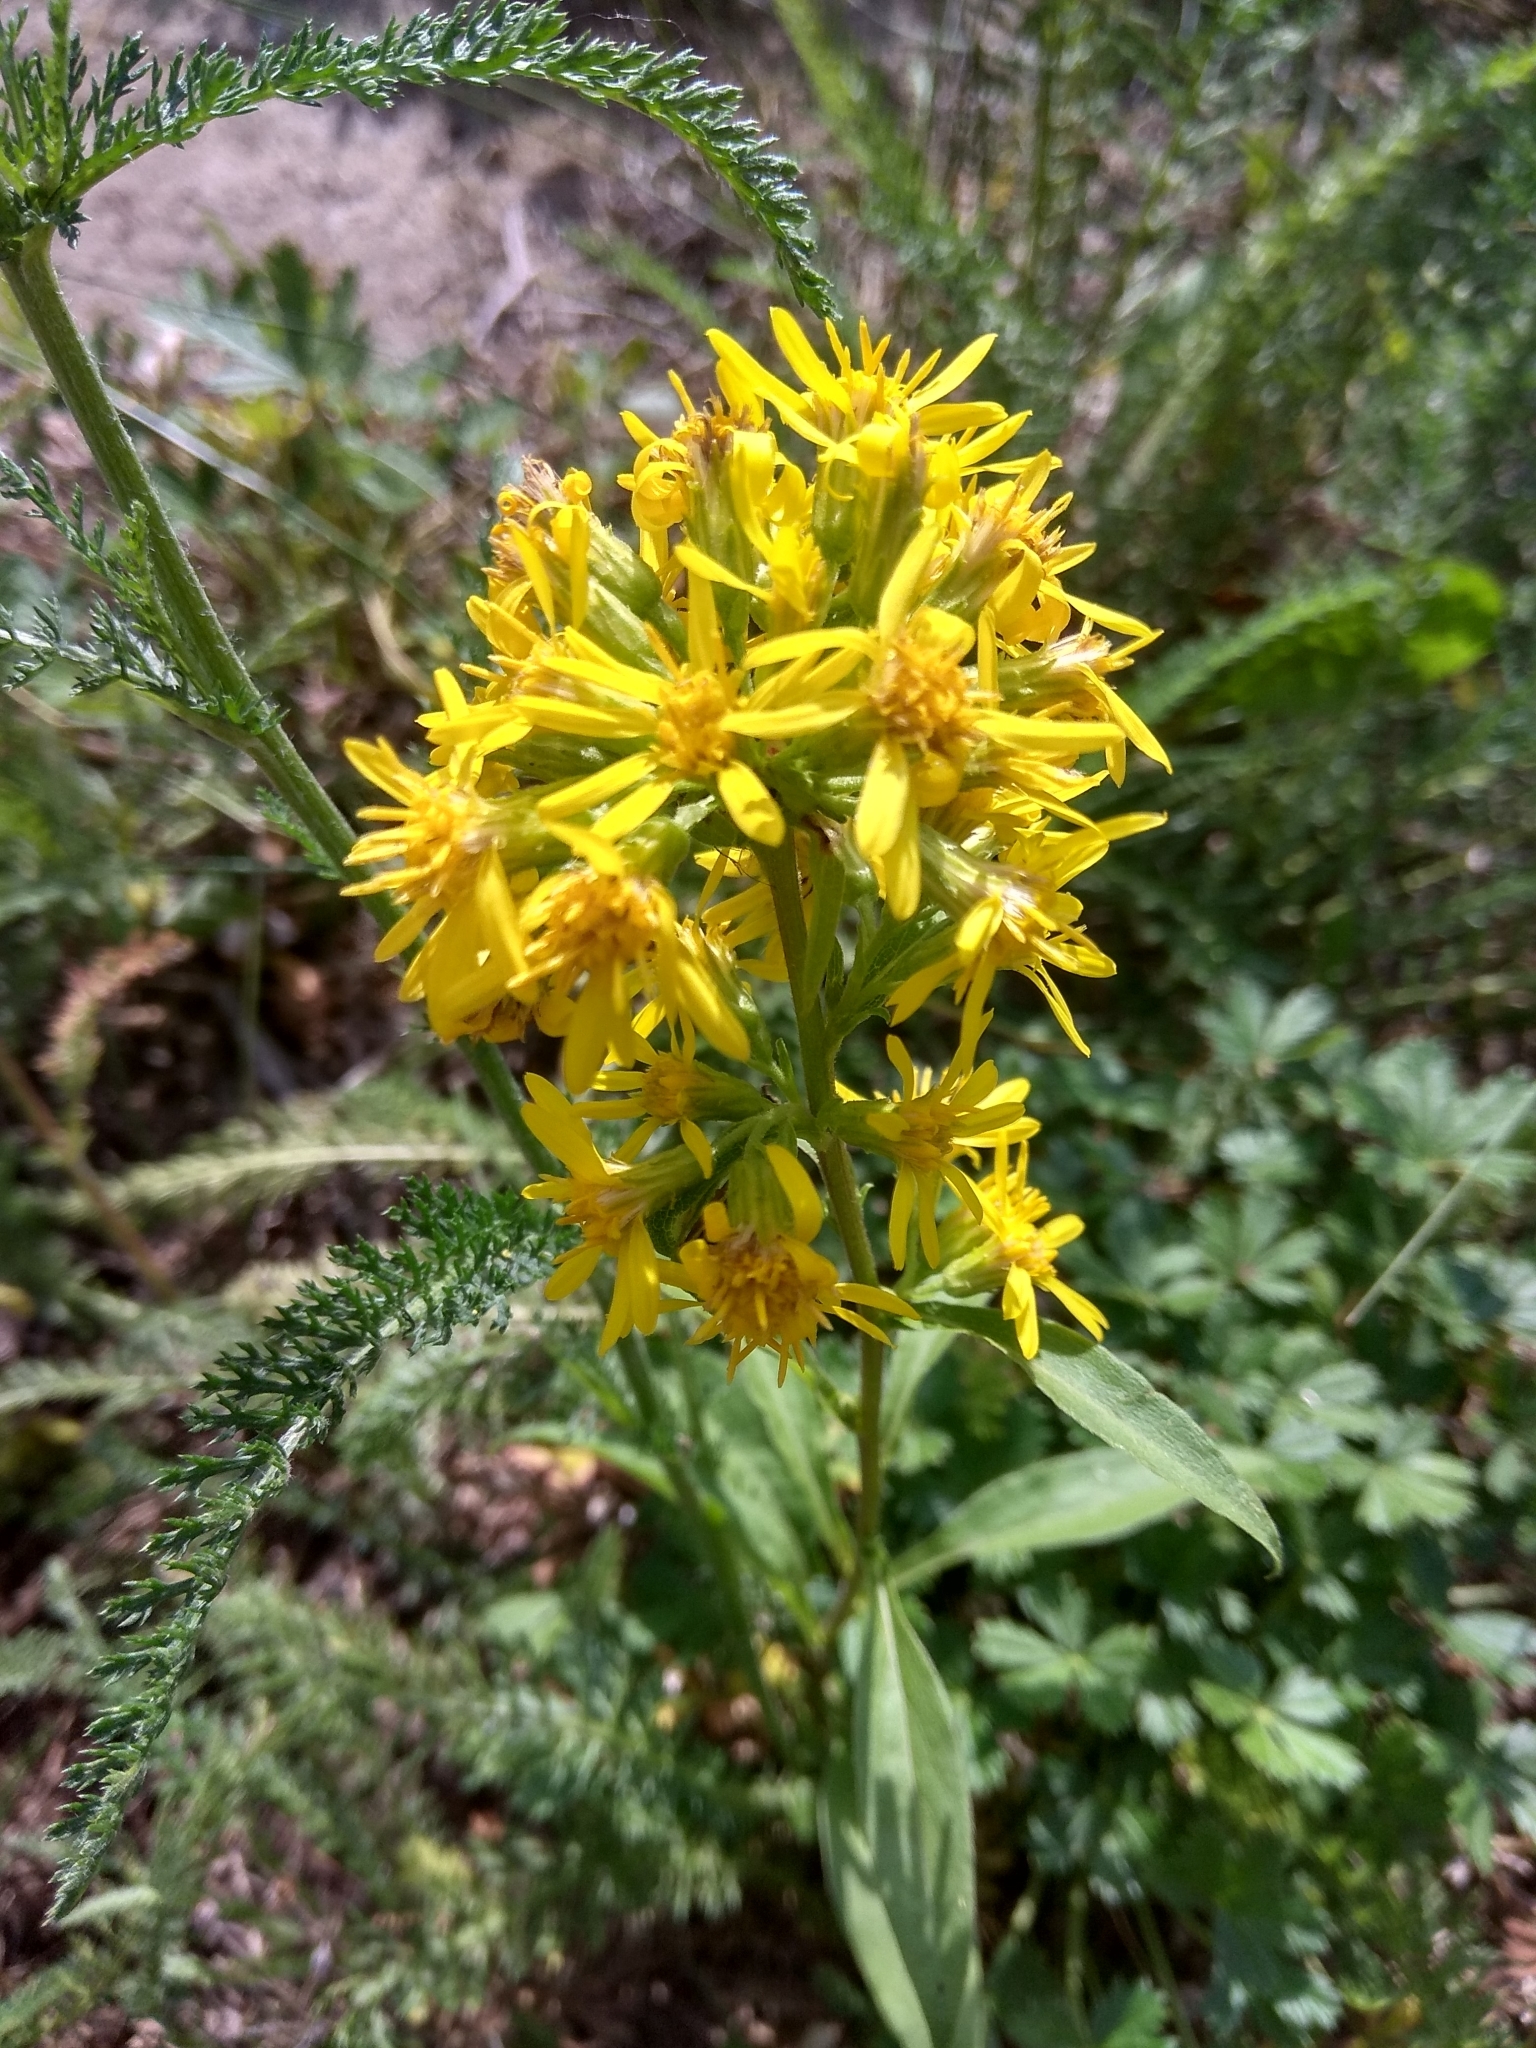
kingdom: Plantae
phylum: Tracheophyta
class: Magnoliopsida
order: Asterales
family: Asteraceae
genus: Solidago
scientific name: Solidago virgaurea
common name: Goldenrod
